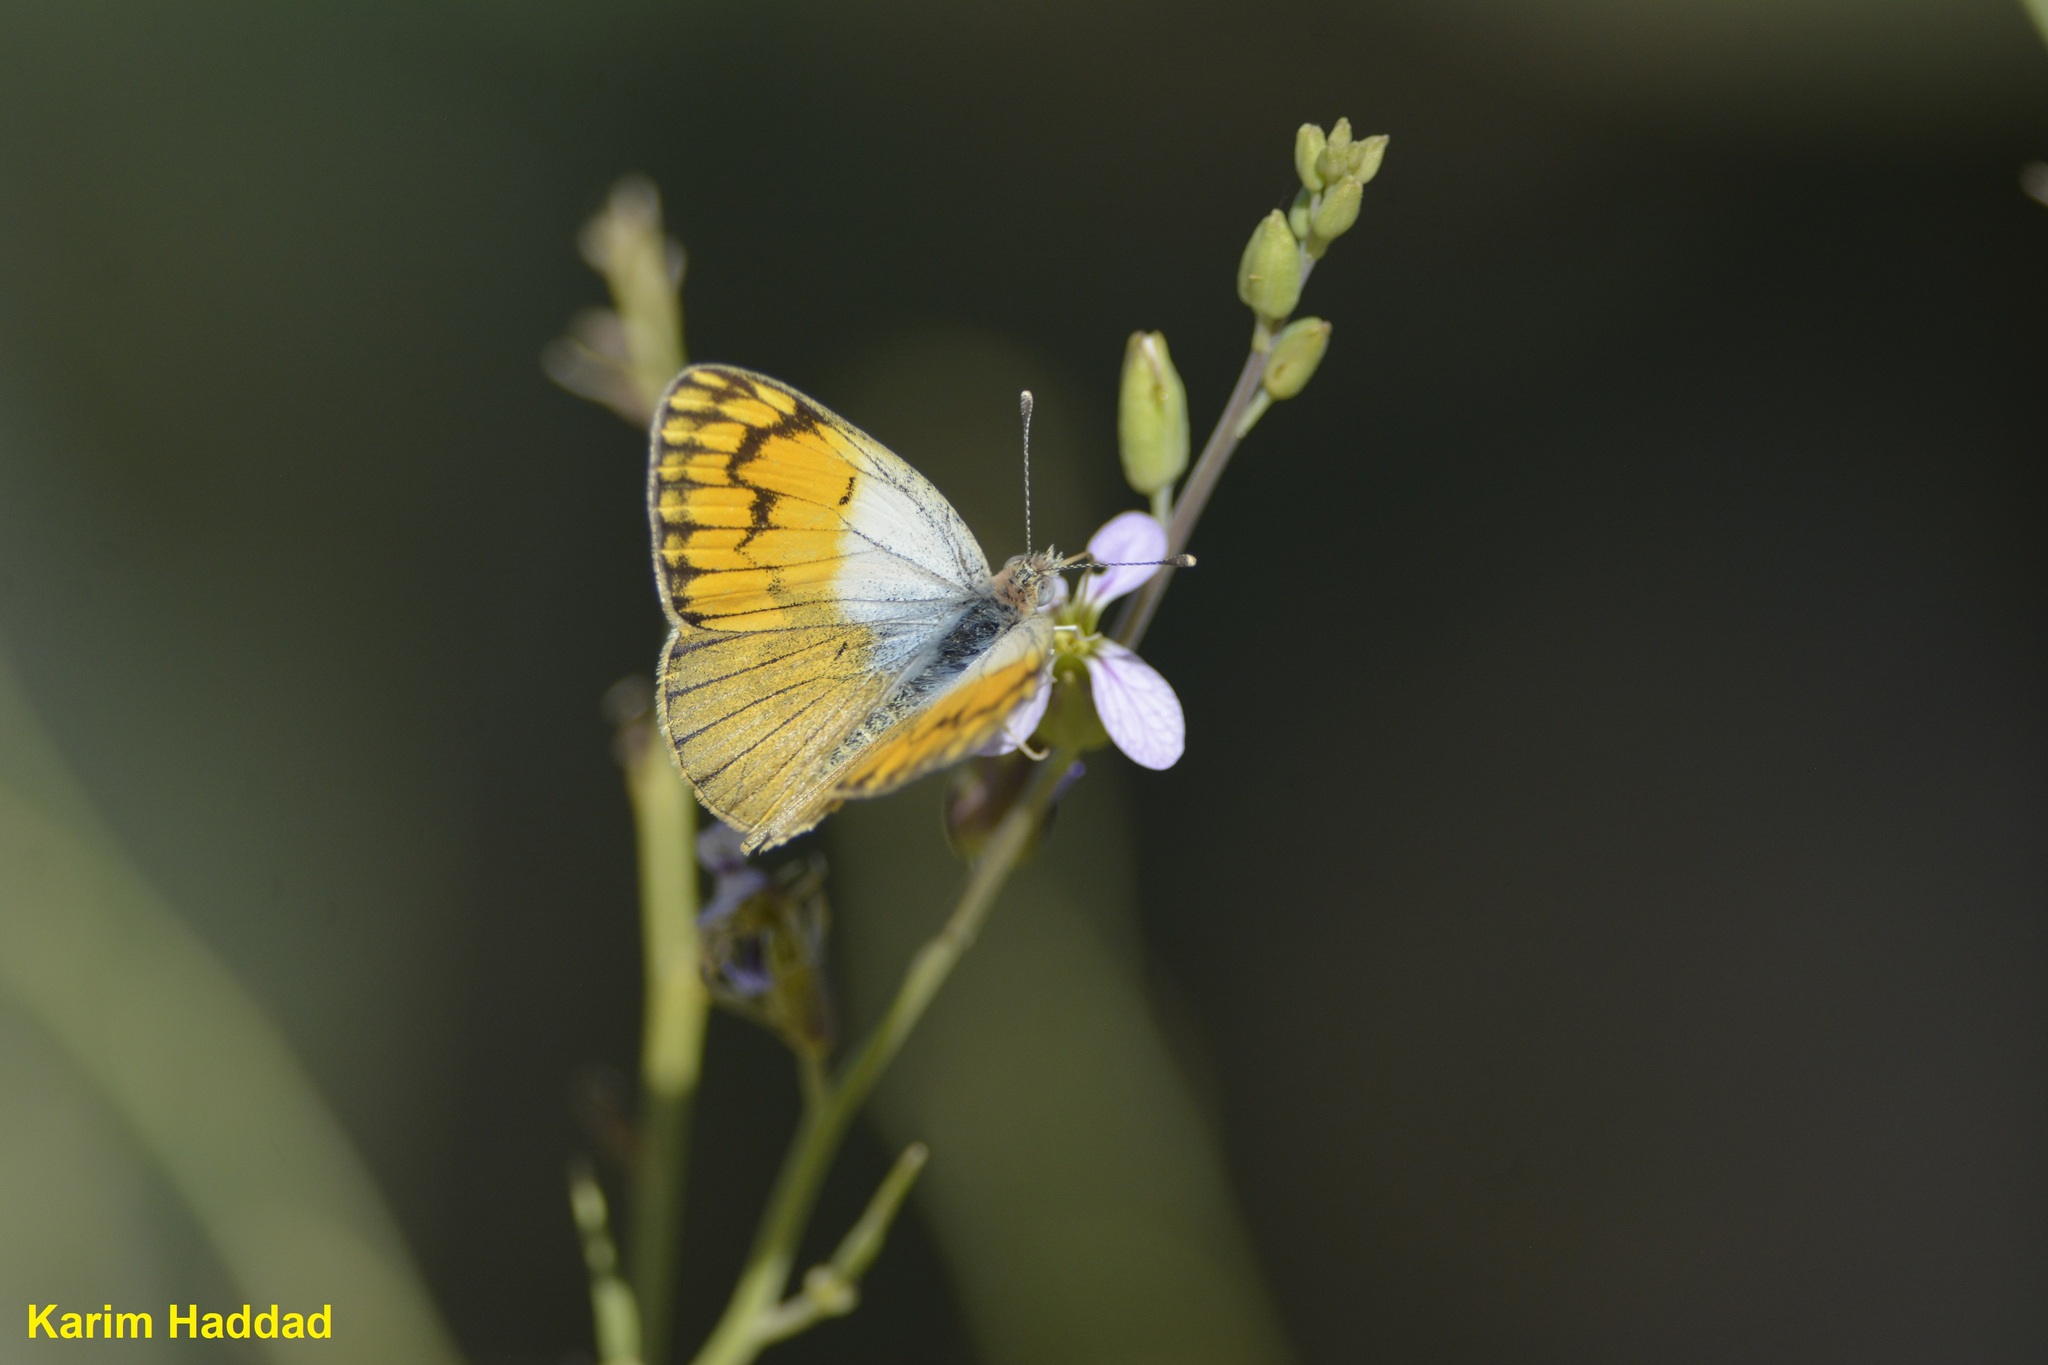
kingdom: Animalia
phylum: Arthropoda
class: Insecta
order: Lepidoptera
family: Pieridae
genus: Colotis
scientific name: Colotis chrysonome
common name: Golden arab
